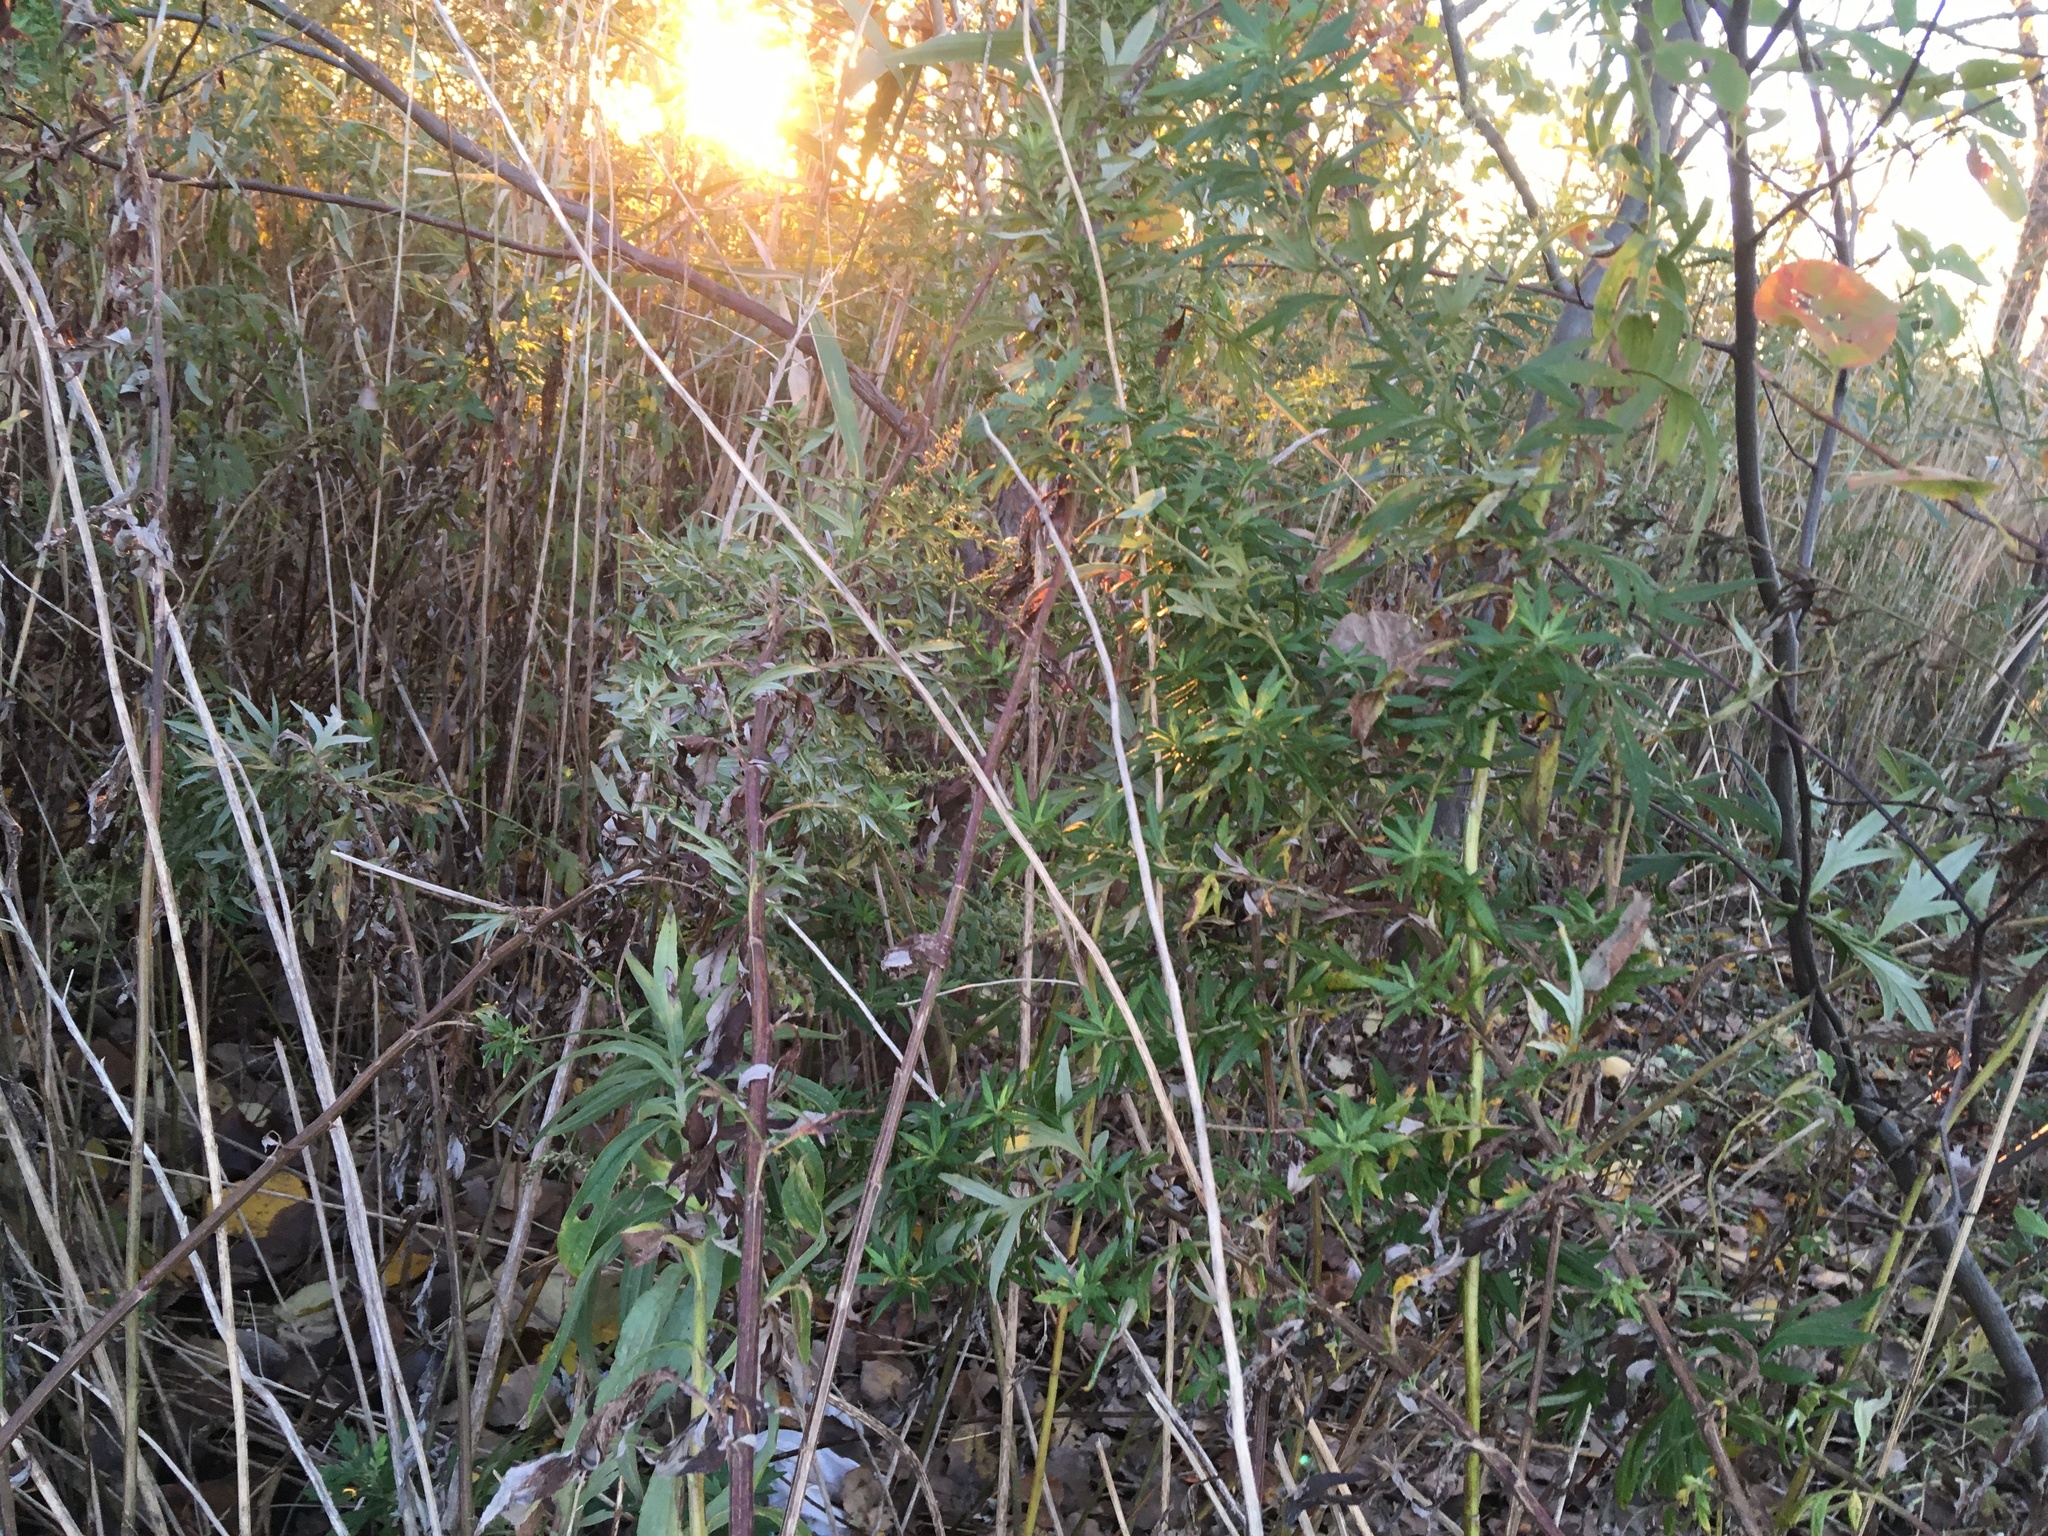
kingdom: Plantae
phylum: Tracheophyta
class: Magnoliopsida
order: Asterales
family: Asteraceae
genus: Artemisia
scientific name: Artemisia vulgaris
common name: Mugwort
